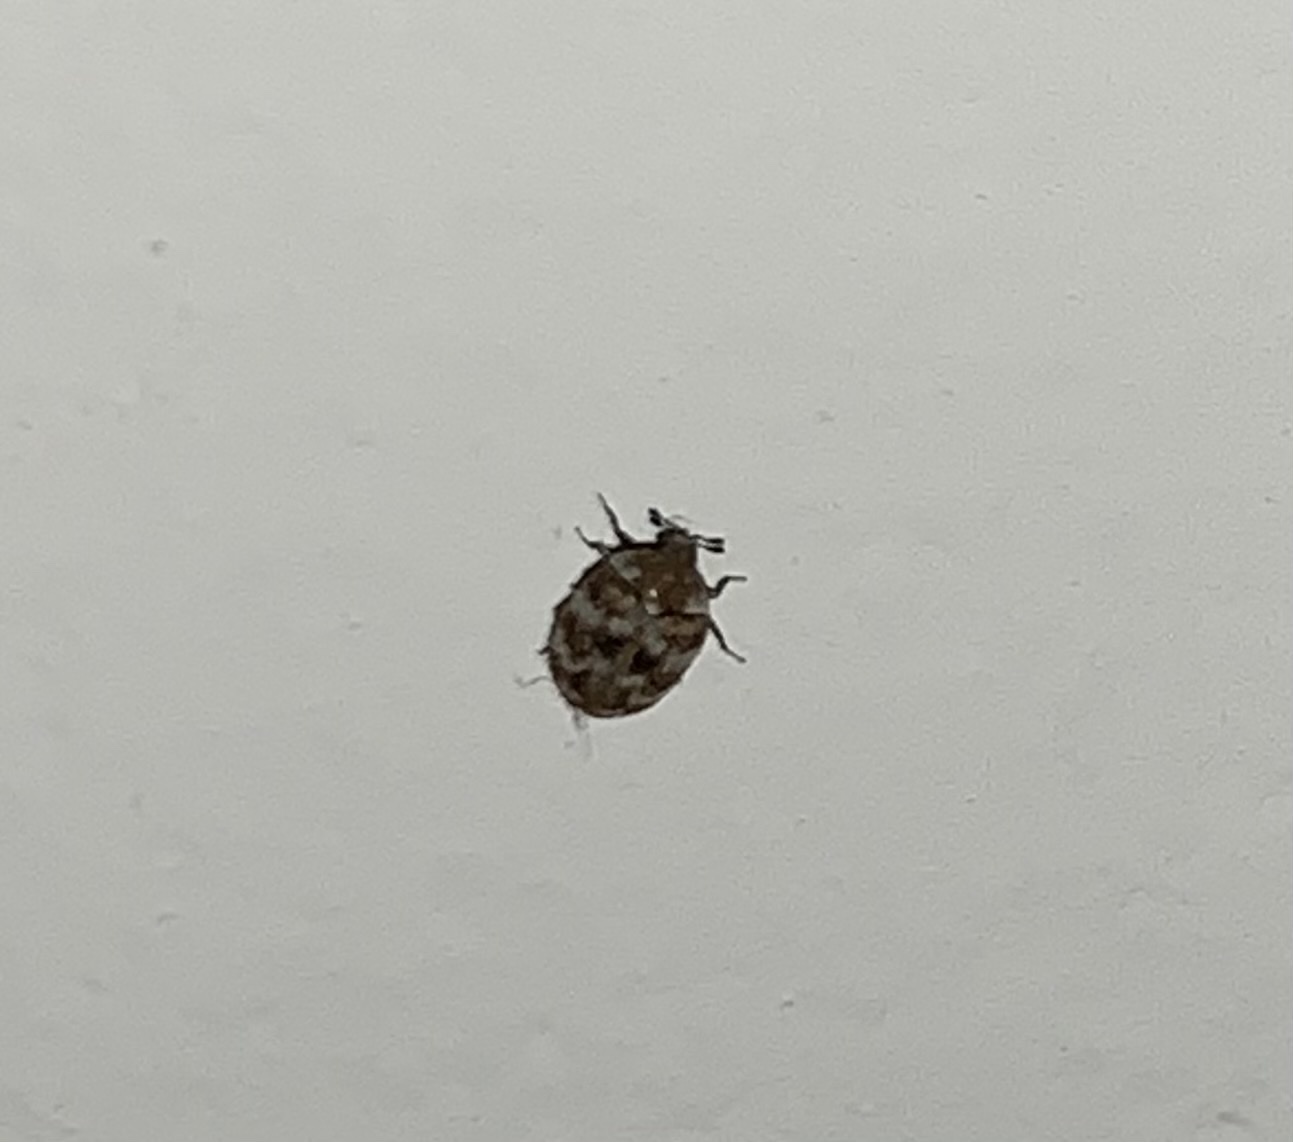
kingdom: Animalia
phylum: Arthropoda
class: Insecta
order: Coleoptera
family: Dermestidae
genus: Anthrenus
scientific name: Anthrenus verbasci
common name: Varied carpet beetle
